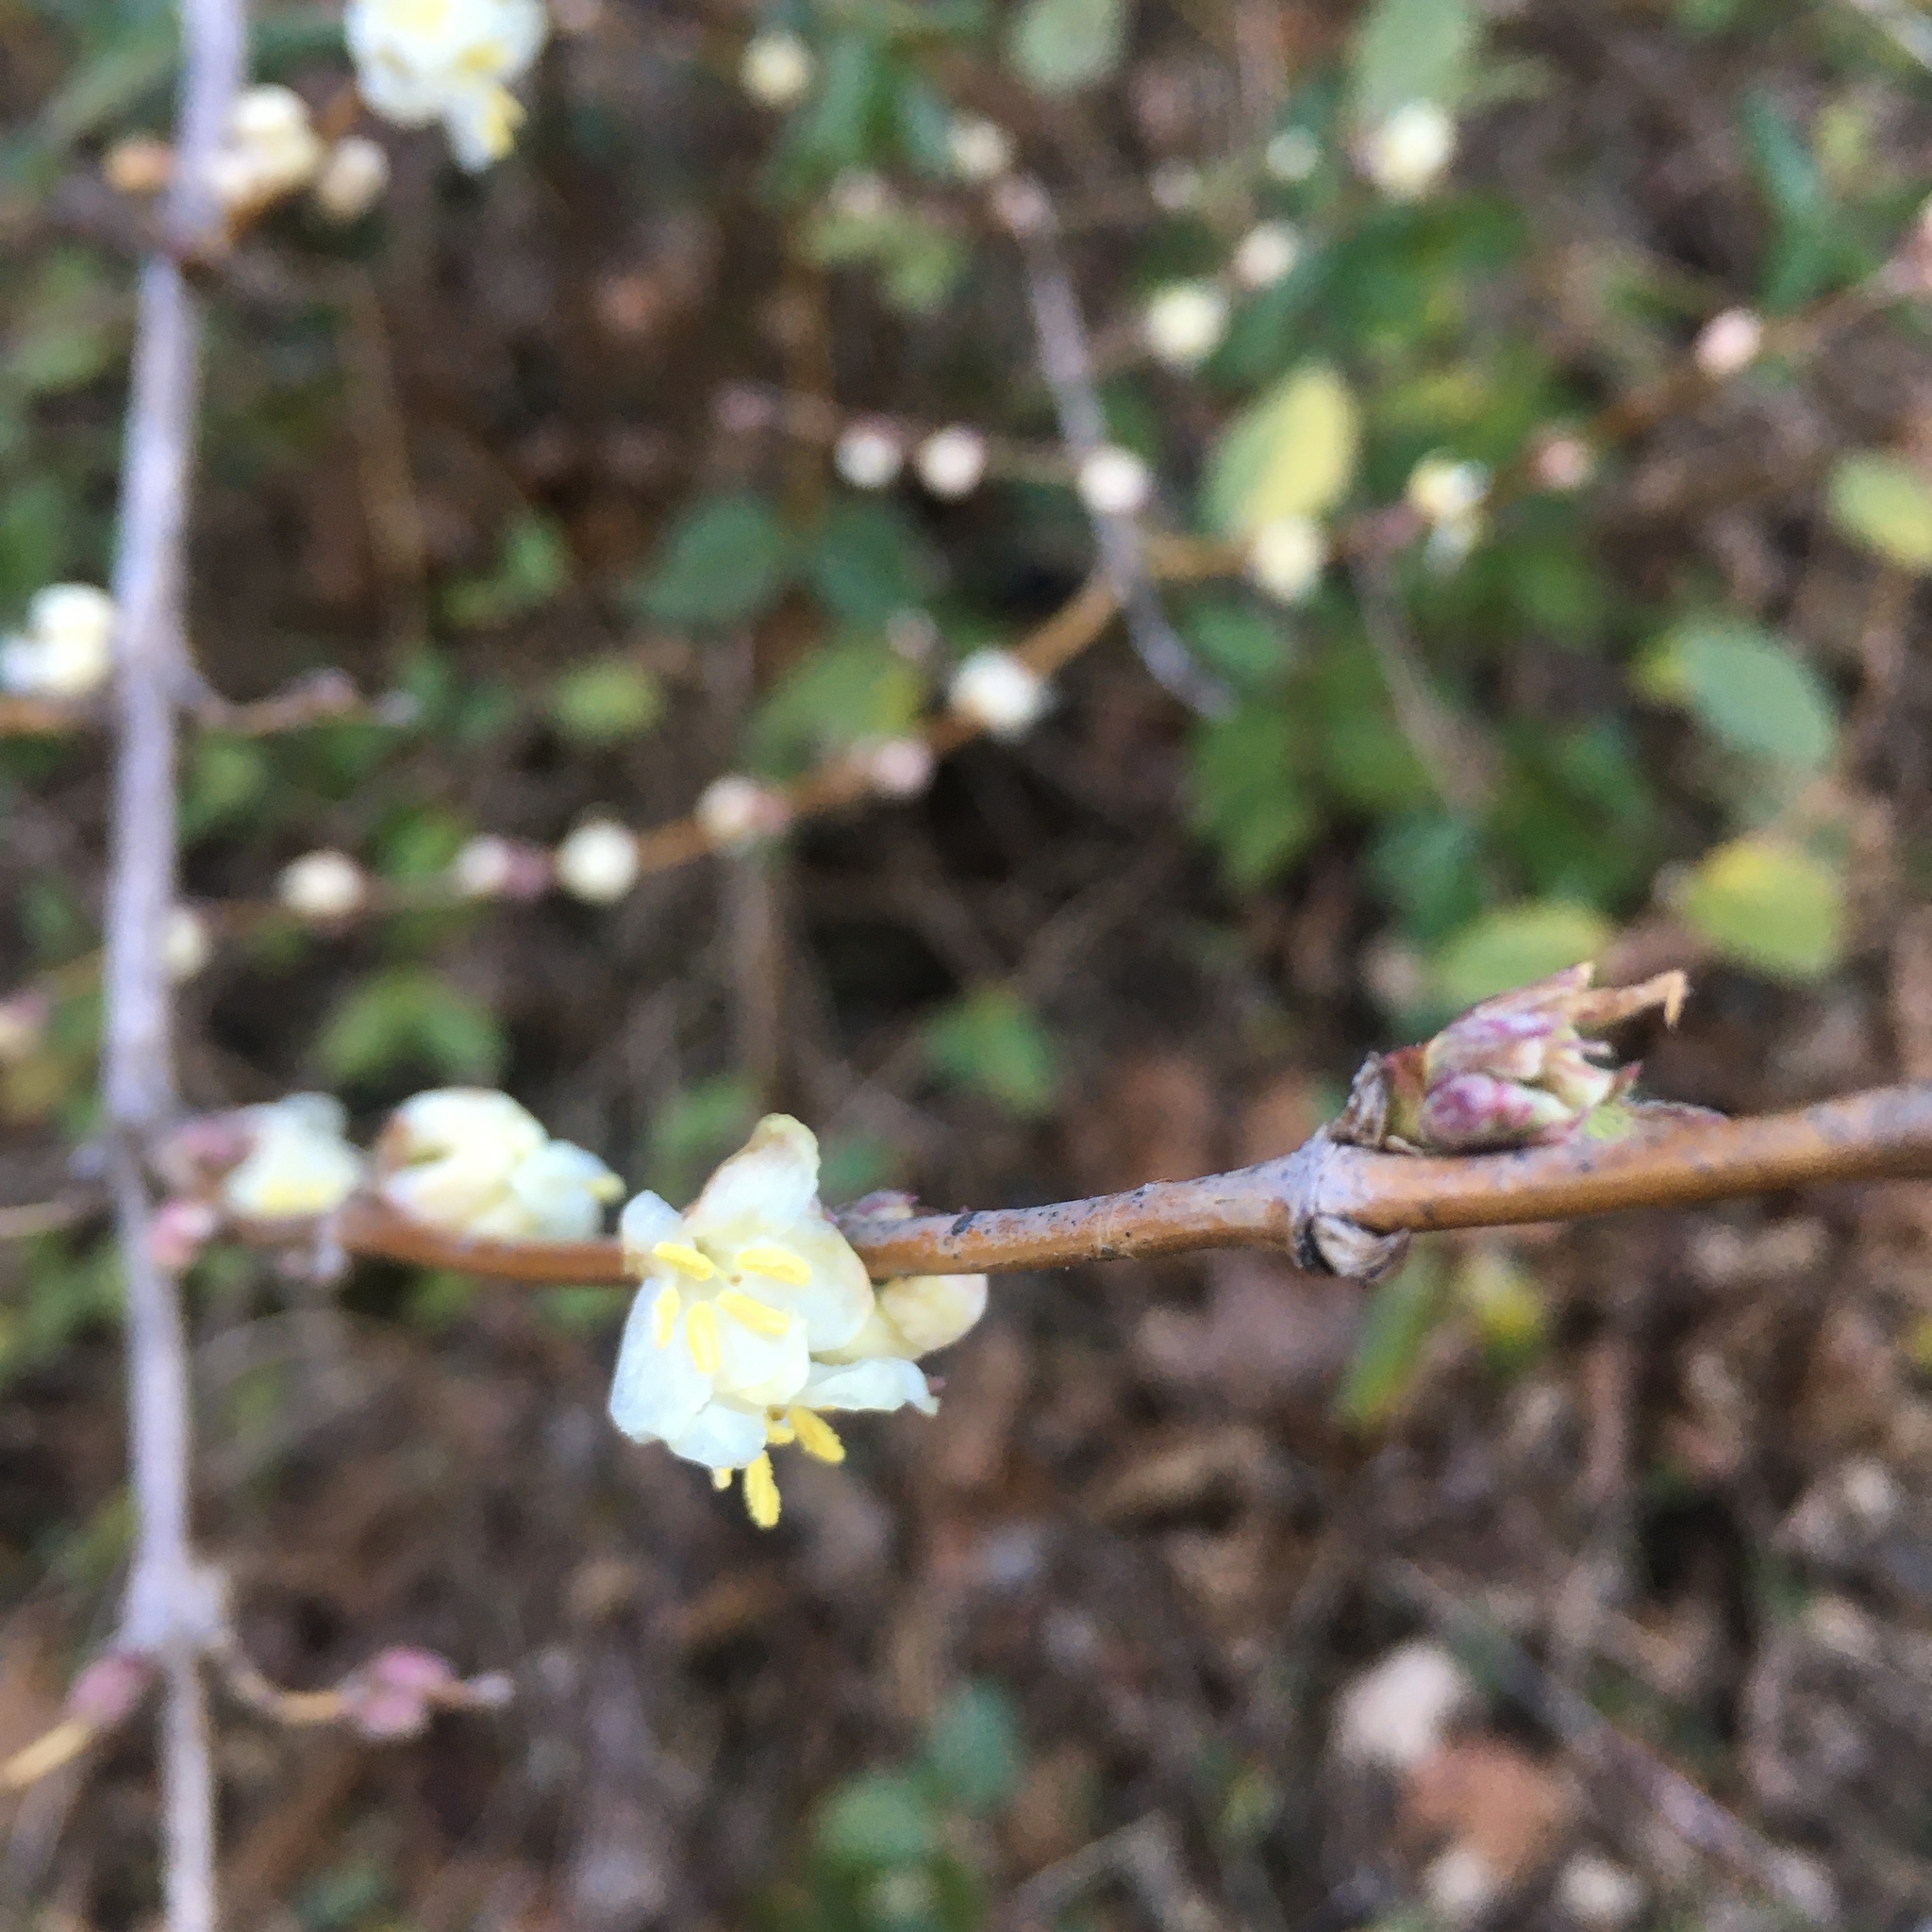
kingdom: Plantae
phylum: Tracheophyta
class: Magnoliopsida
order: Dipsacales
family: Caprifoliaceae
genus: Lonicera
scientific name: Lonicera fragrantissima
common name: Fragrant honeysuckle
